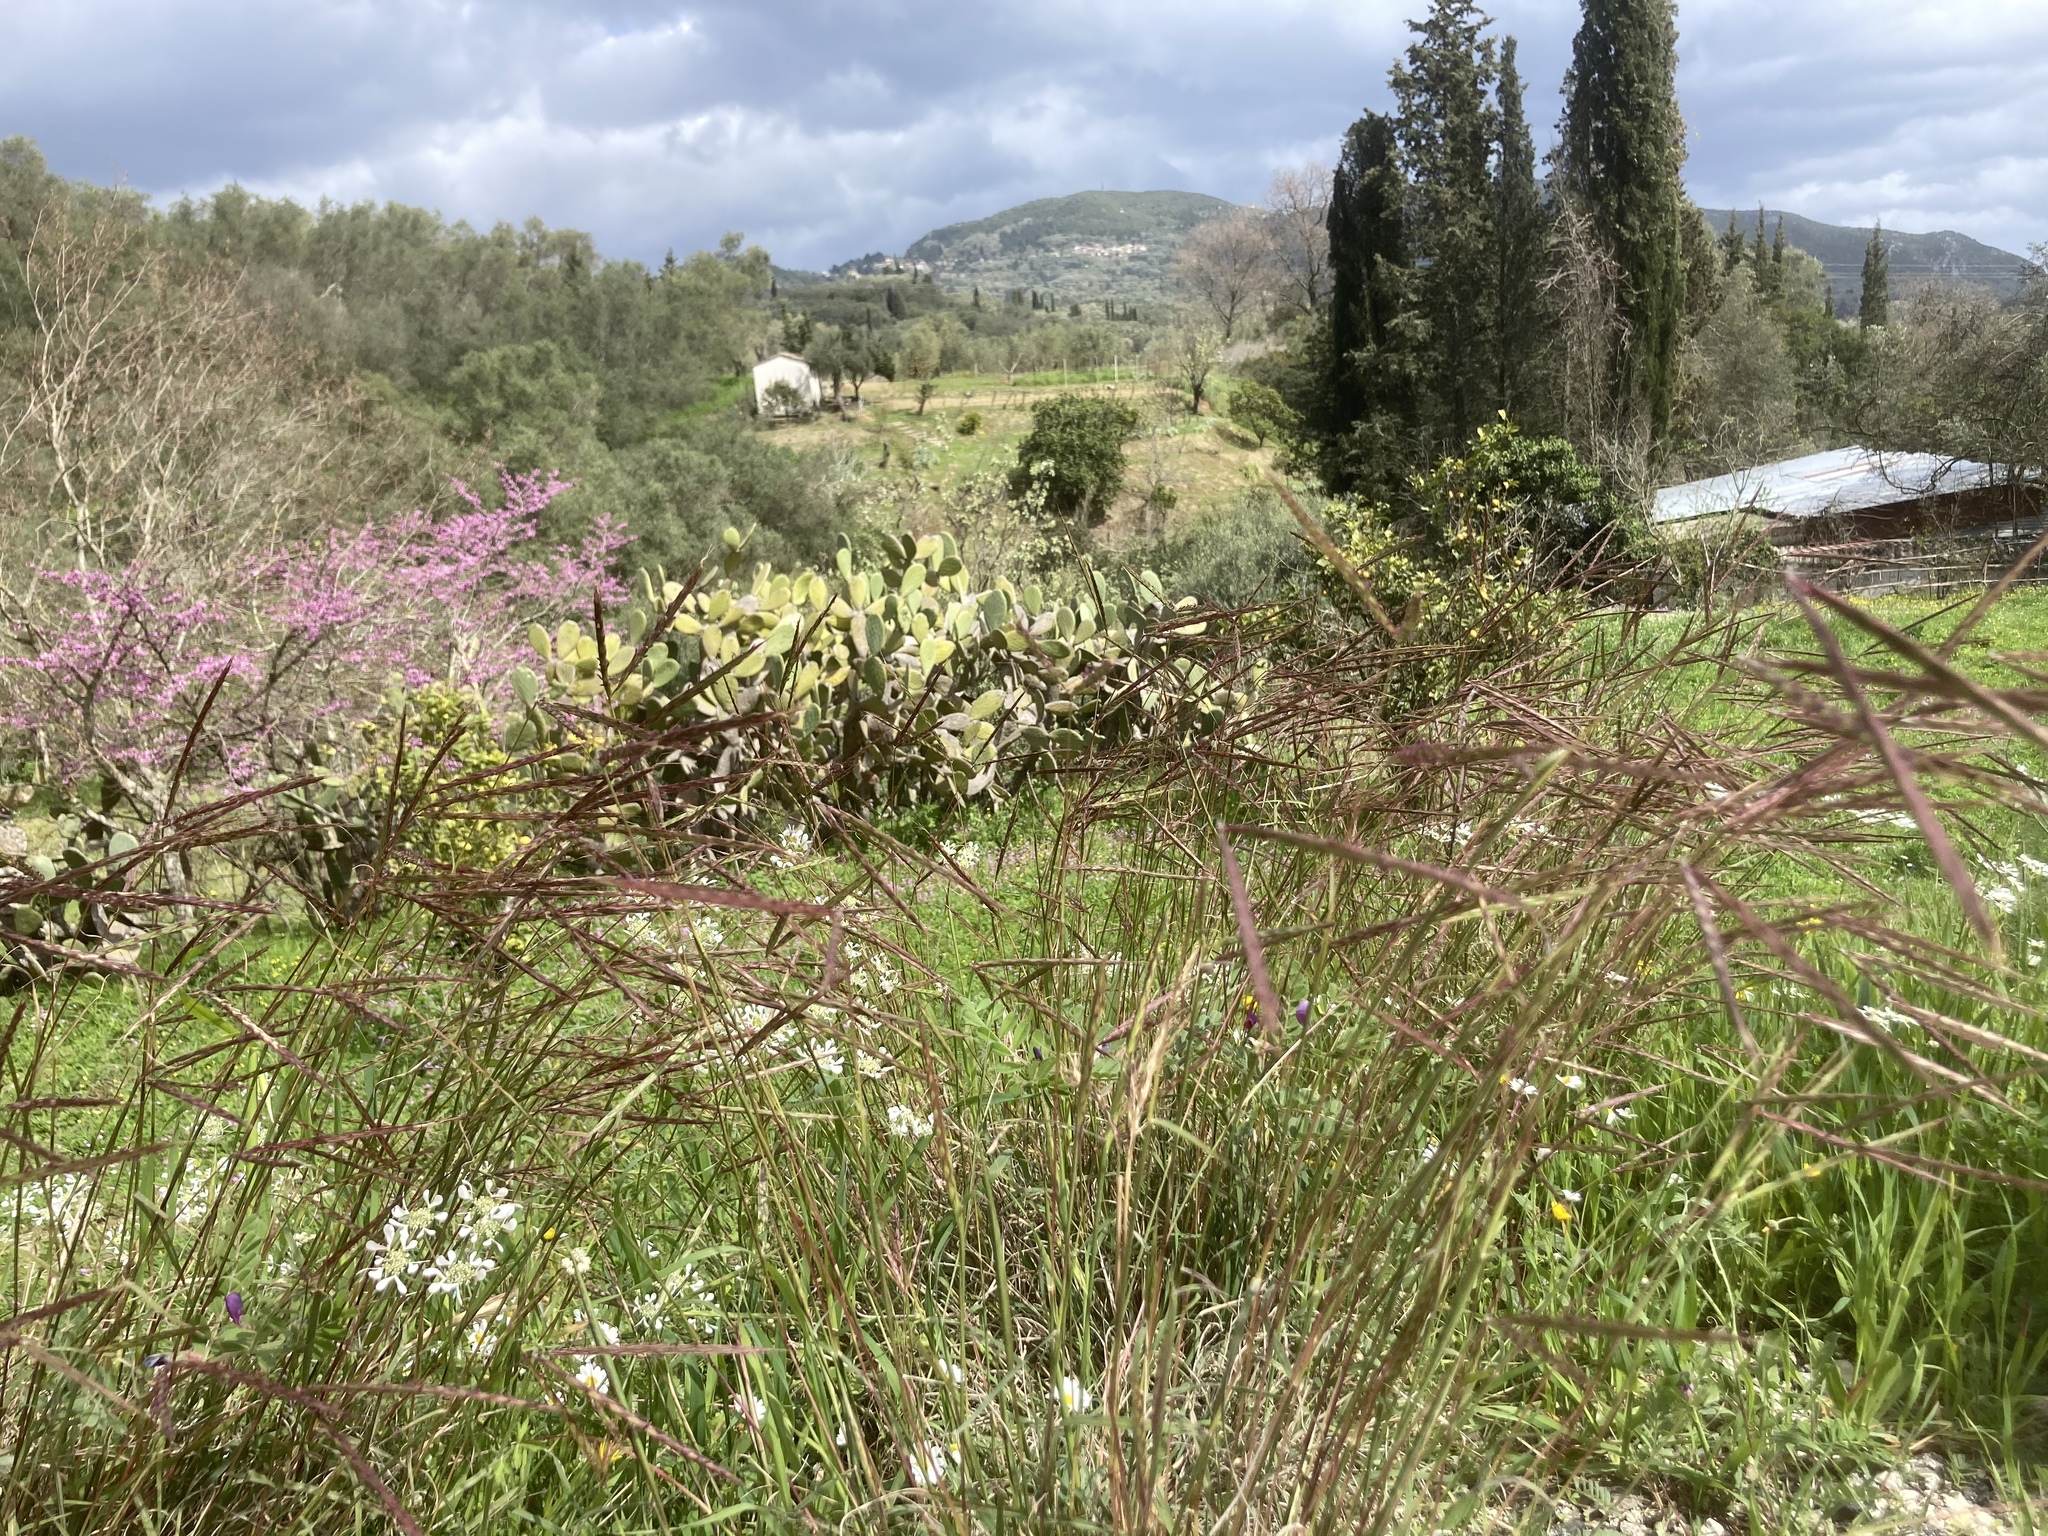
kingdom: Plantae
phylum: Tracheophyta
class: Liliopsida
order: Poales
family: Poaceae
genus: Andropogon
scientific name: Andropogon distachyos
